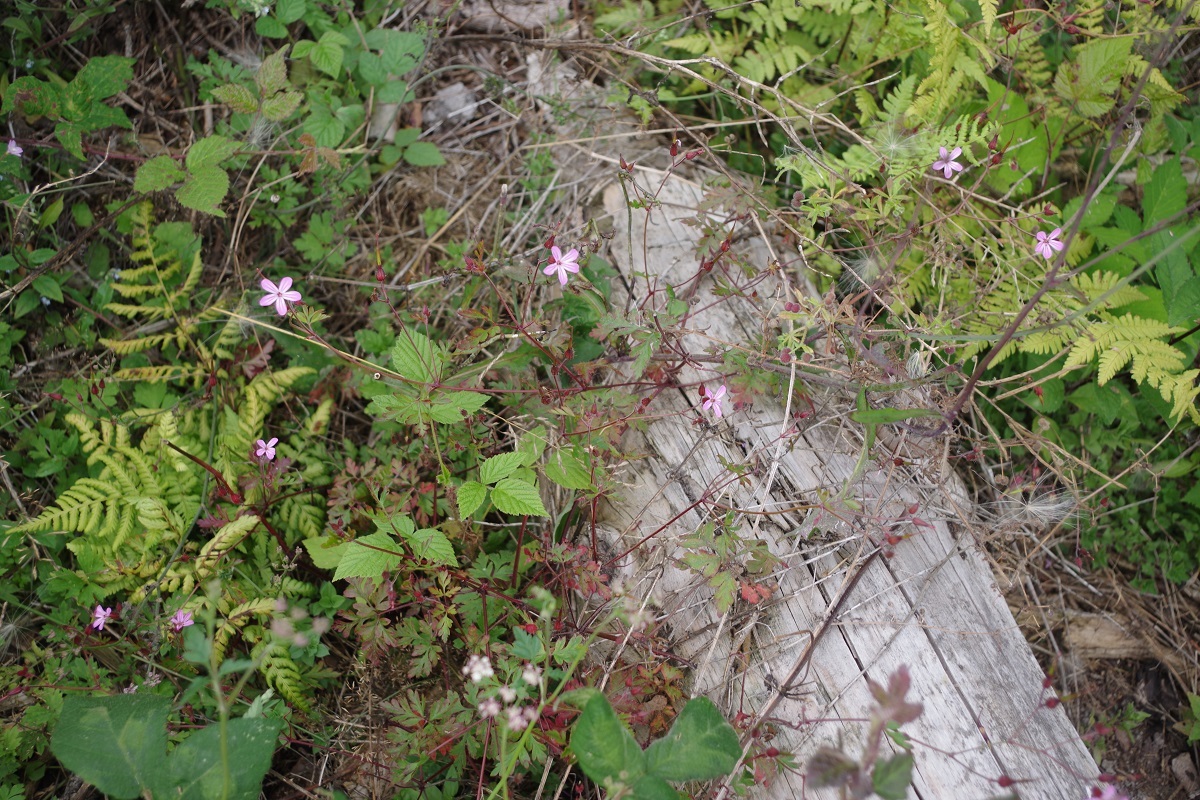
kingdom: Plantae
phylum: Tracheophyta
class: Magnoliopsida
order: Geraniales
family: Geraniaceae
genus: Geranium
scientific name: Geranium robertianum
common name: Herb-robert
